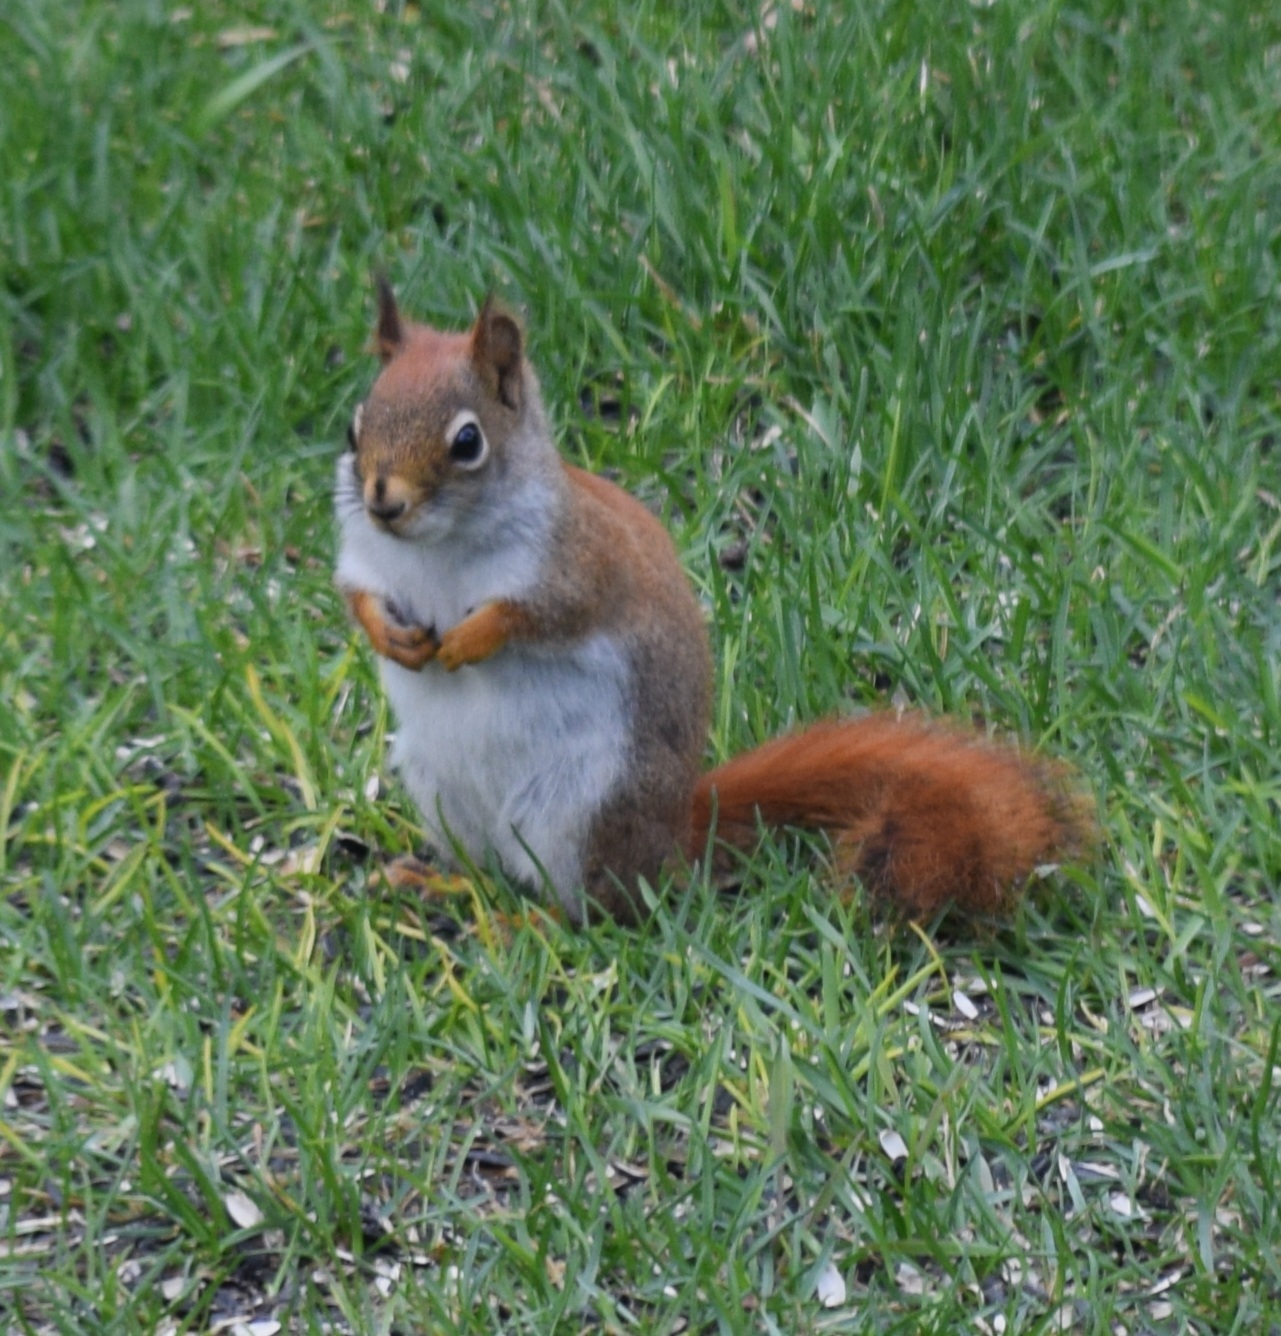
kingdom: Animalia
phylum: Chordata
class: Mammalia
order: Rodentia
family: Sciuridae
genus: Tamiasciurus
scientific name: Tamiasciurus hudsonicus
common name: Red squirrel
